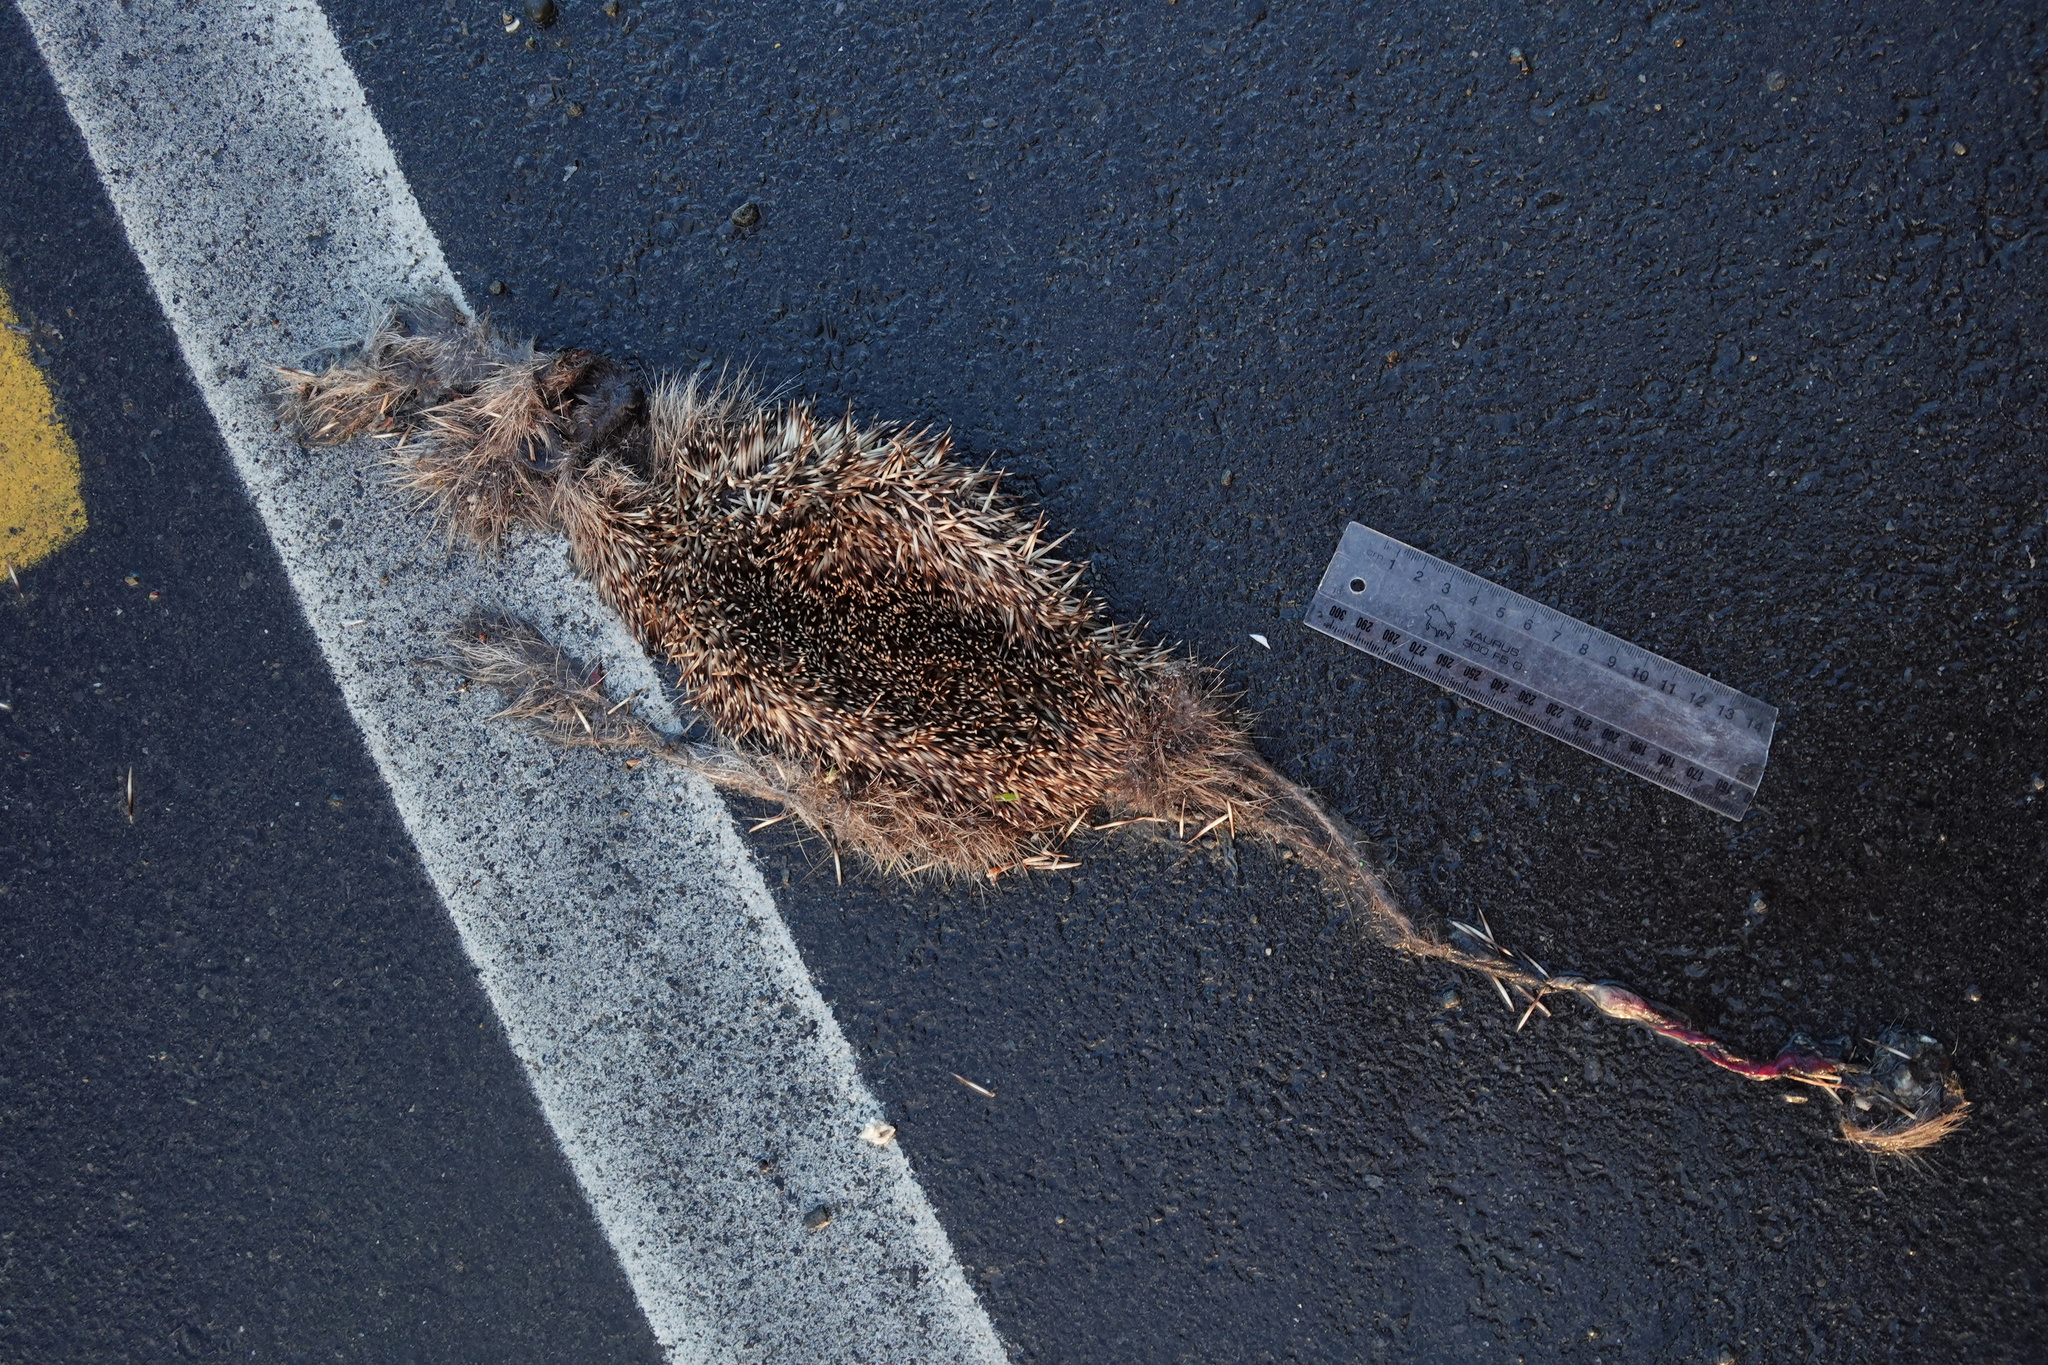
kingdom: Animalia
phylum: Chordata
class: Mammalia
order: Erinaceomorpha
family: Erinaceidae
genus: Erinaceus
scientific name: Erinaceus europaeus
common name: West european hedgehog
